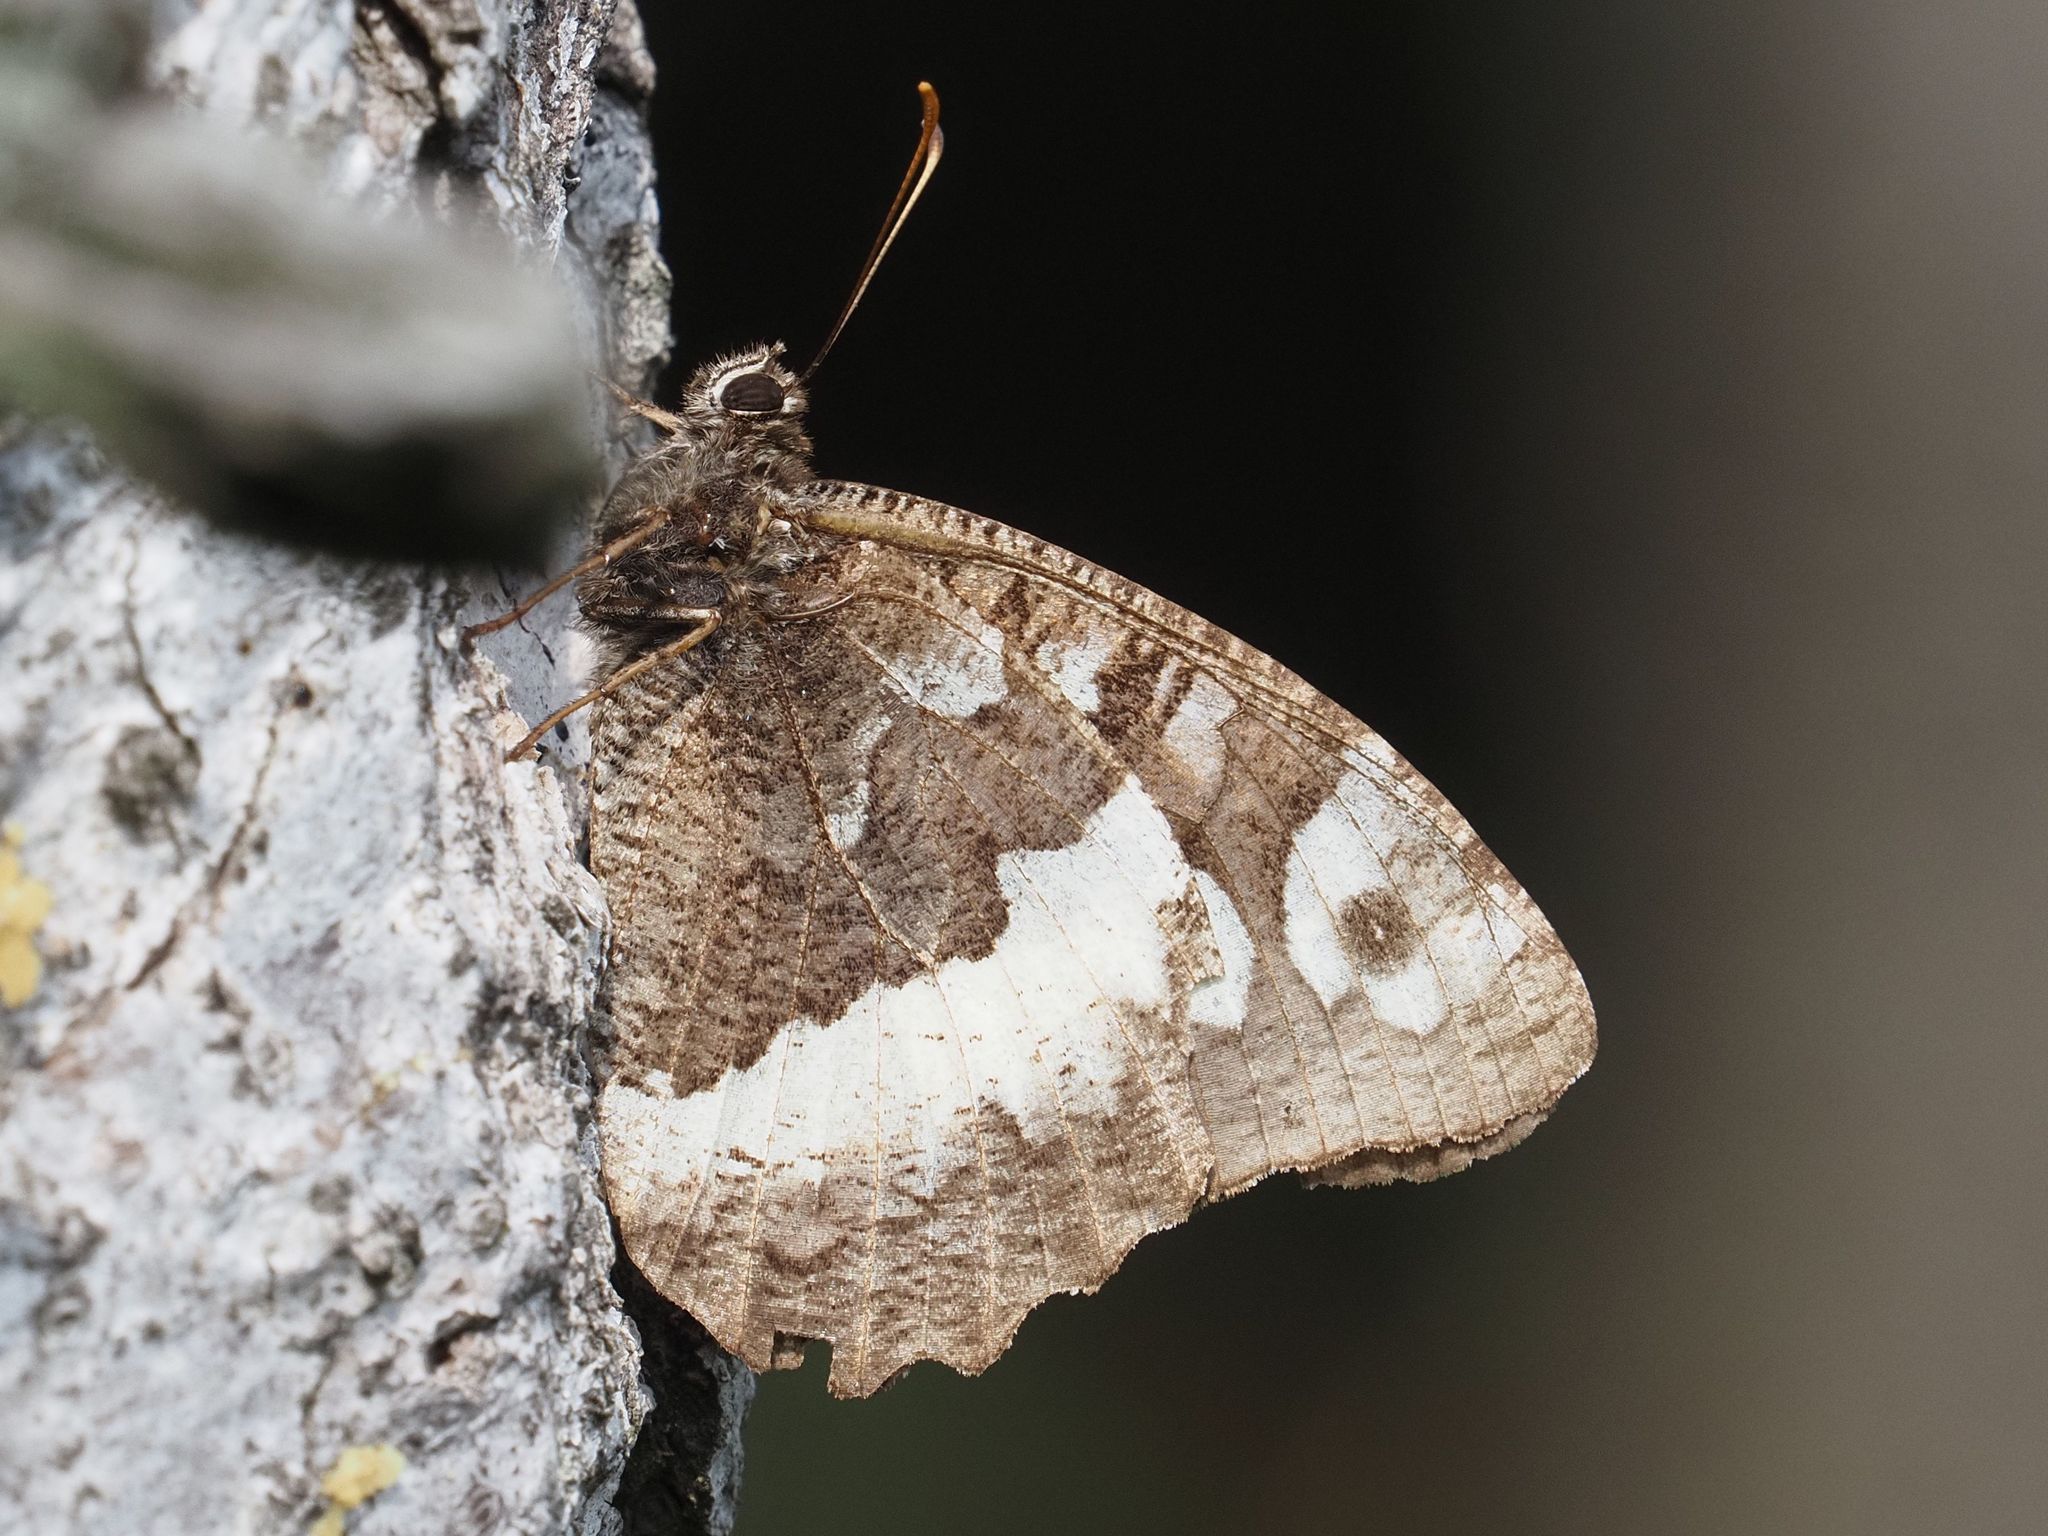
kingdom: Animalia
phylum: Arthropoda
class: Insecta
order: Lepidoptera
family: Lycaenidae
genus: Loweia
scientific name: Loweia tityrus
